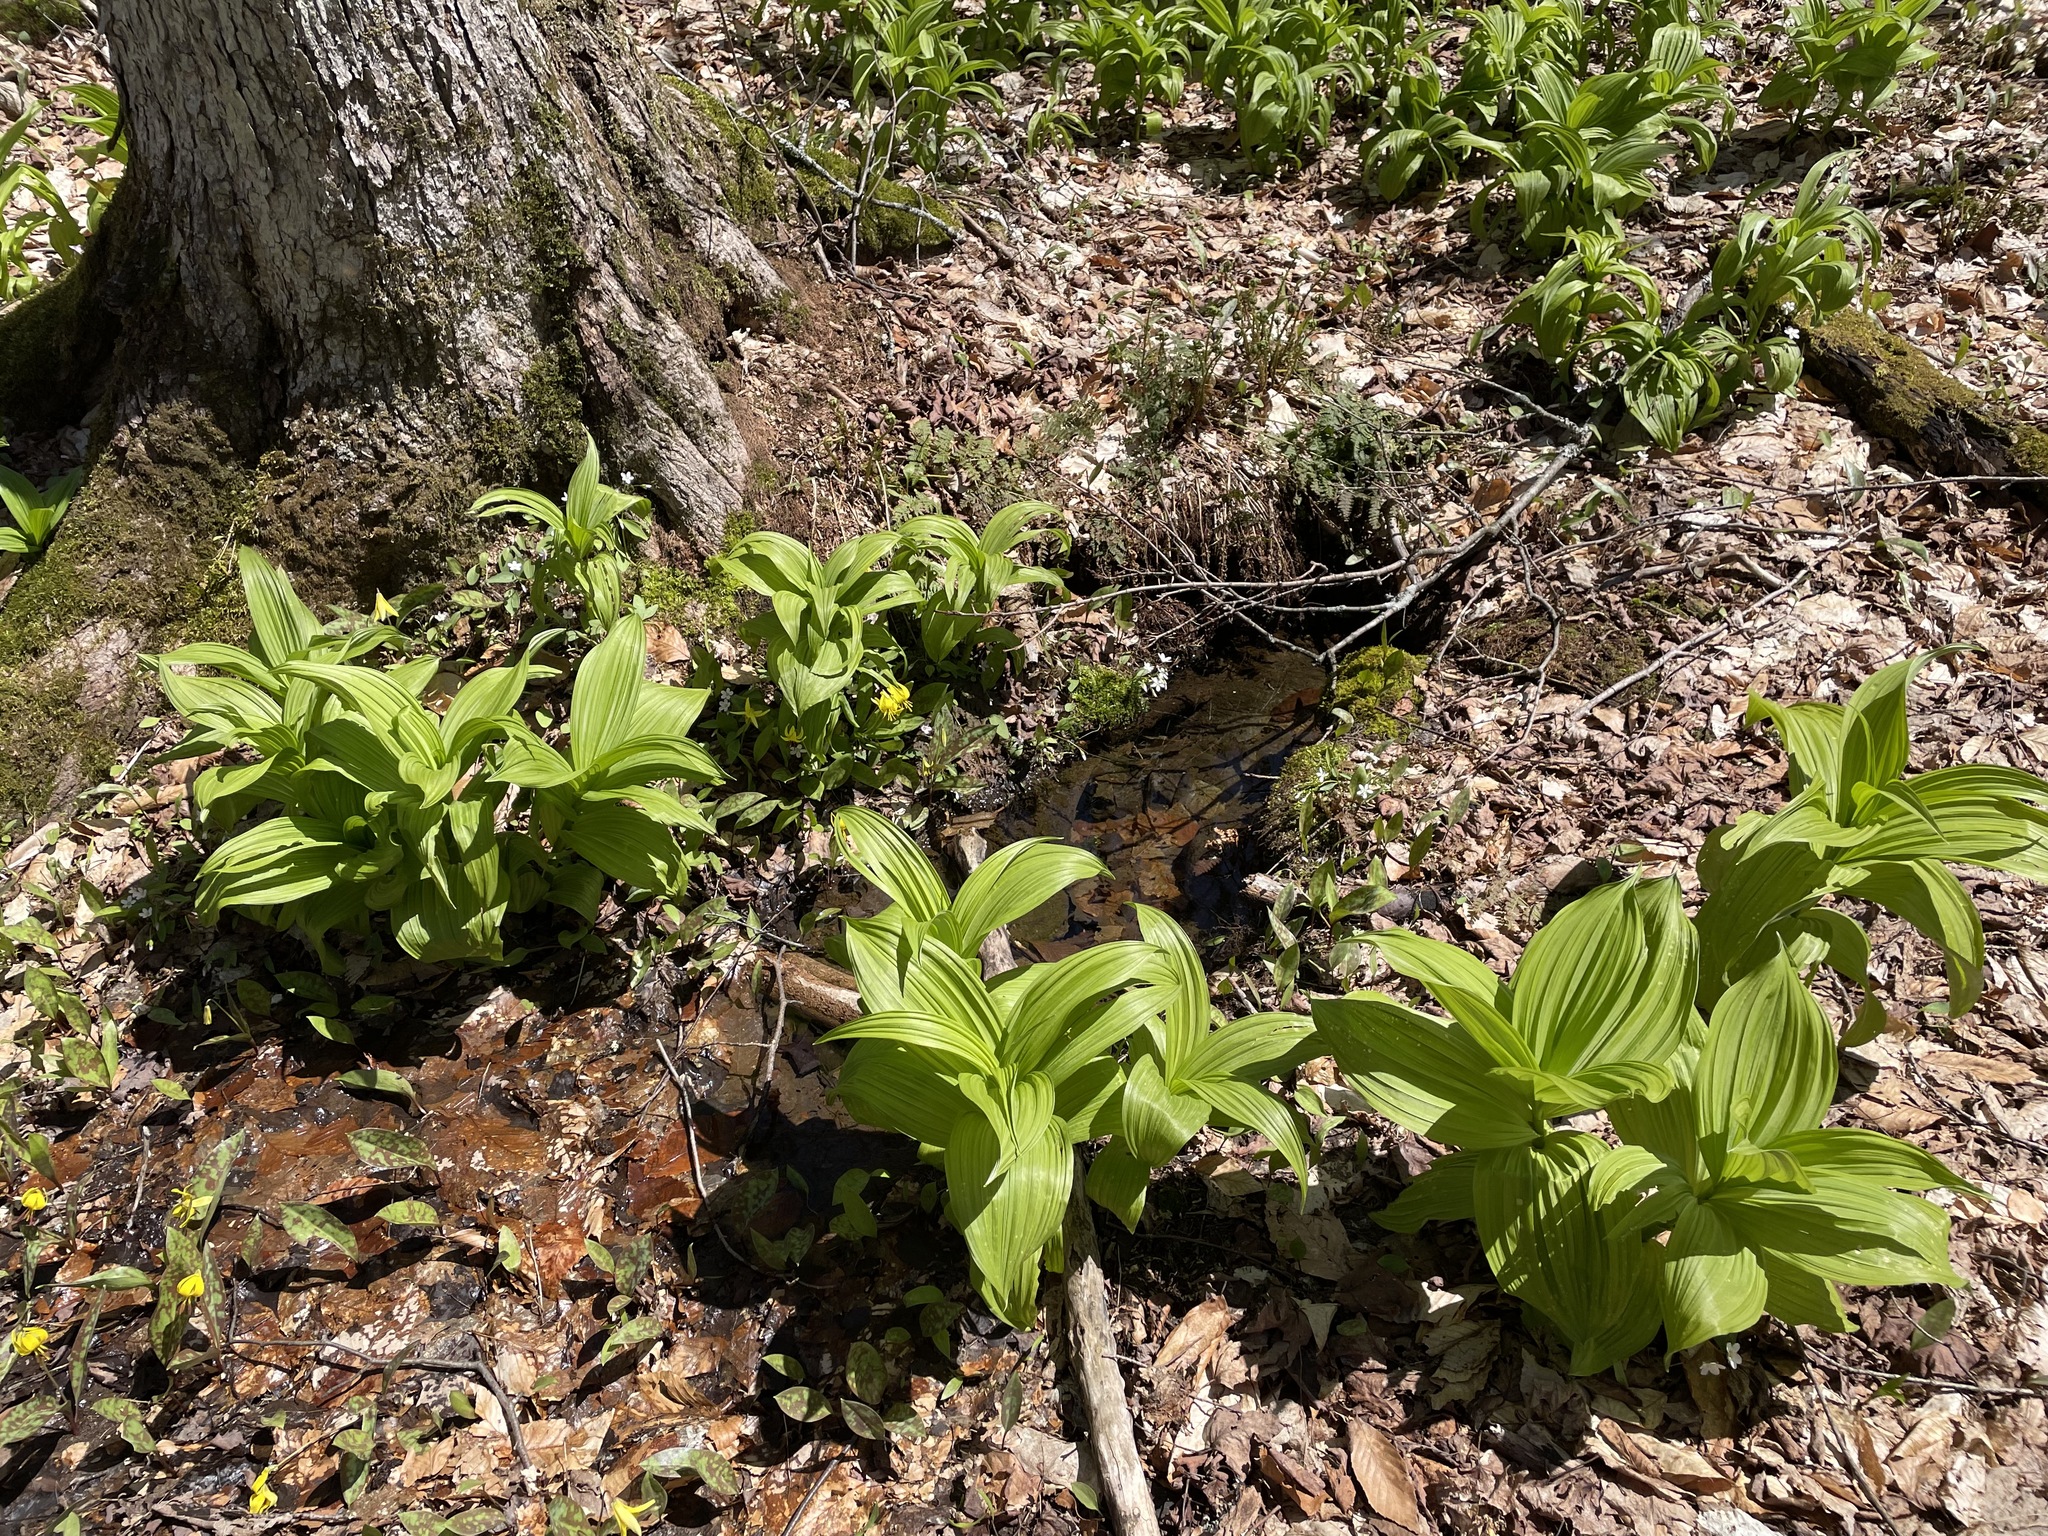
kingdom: Plantae
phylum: Tracheophyta
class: Liliopsida
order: Liliales
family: Melanthiaceae
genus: Veratrum
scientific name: Veratrum viride
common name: American false hellebore
